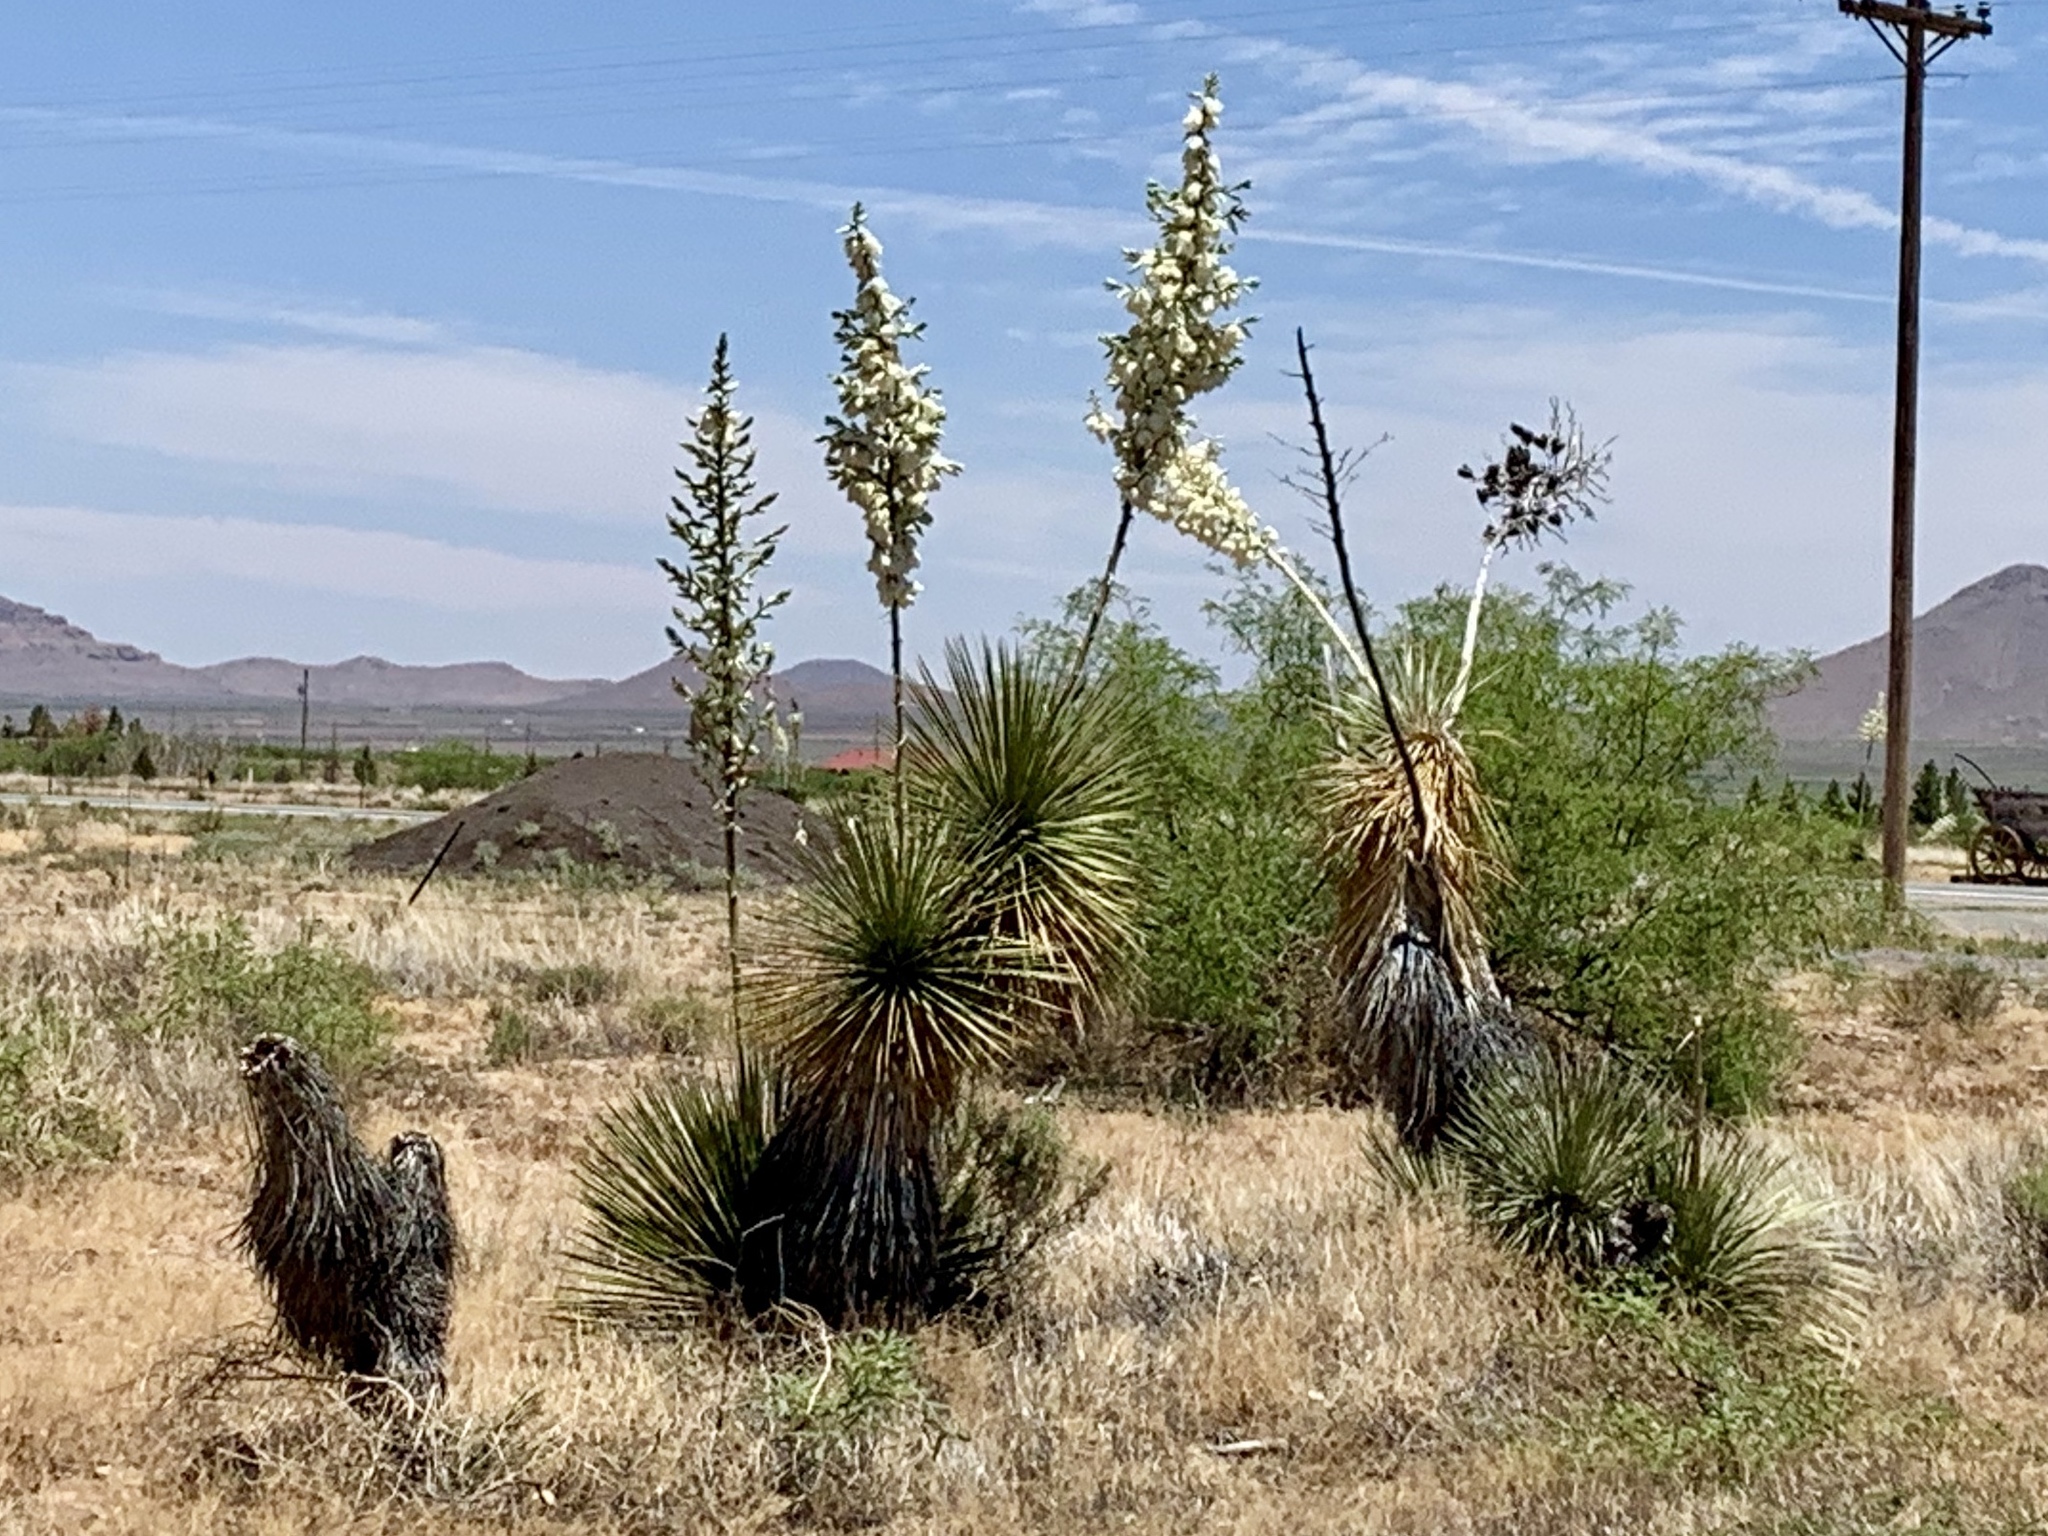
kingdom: Plantae
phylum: Tracheophyta
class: Liliopsida
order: Asparagales
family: Asparagaceae
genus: Yucca
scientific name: Yucca elata
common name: Palmella
